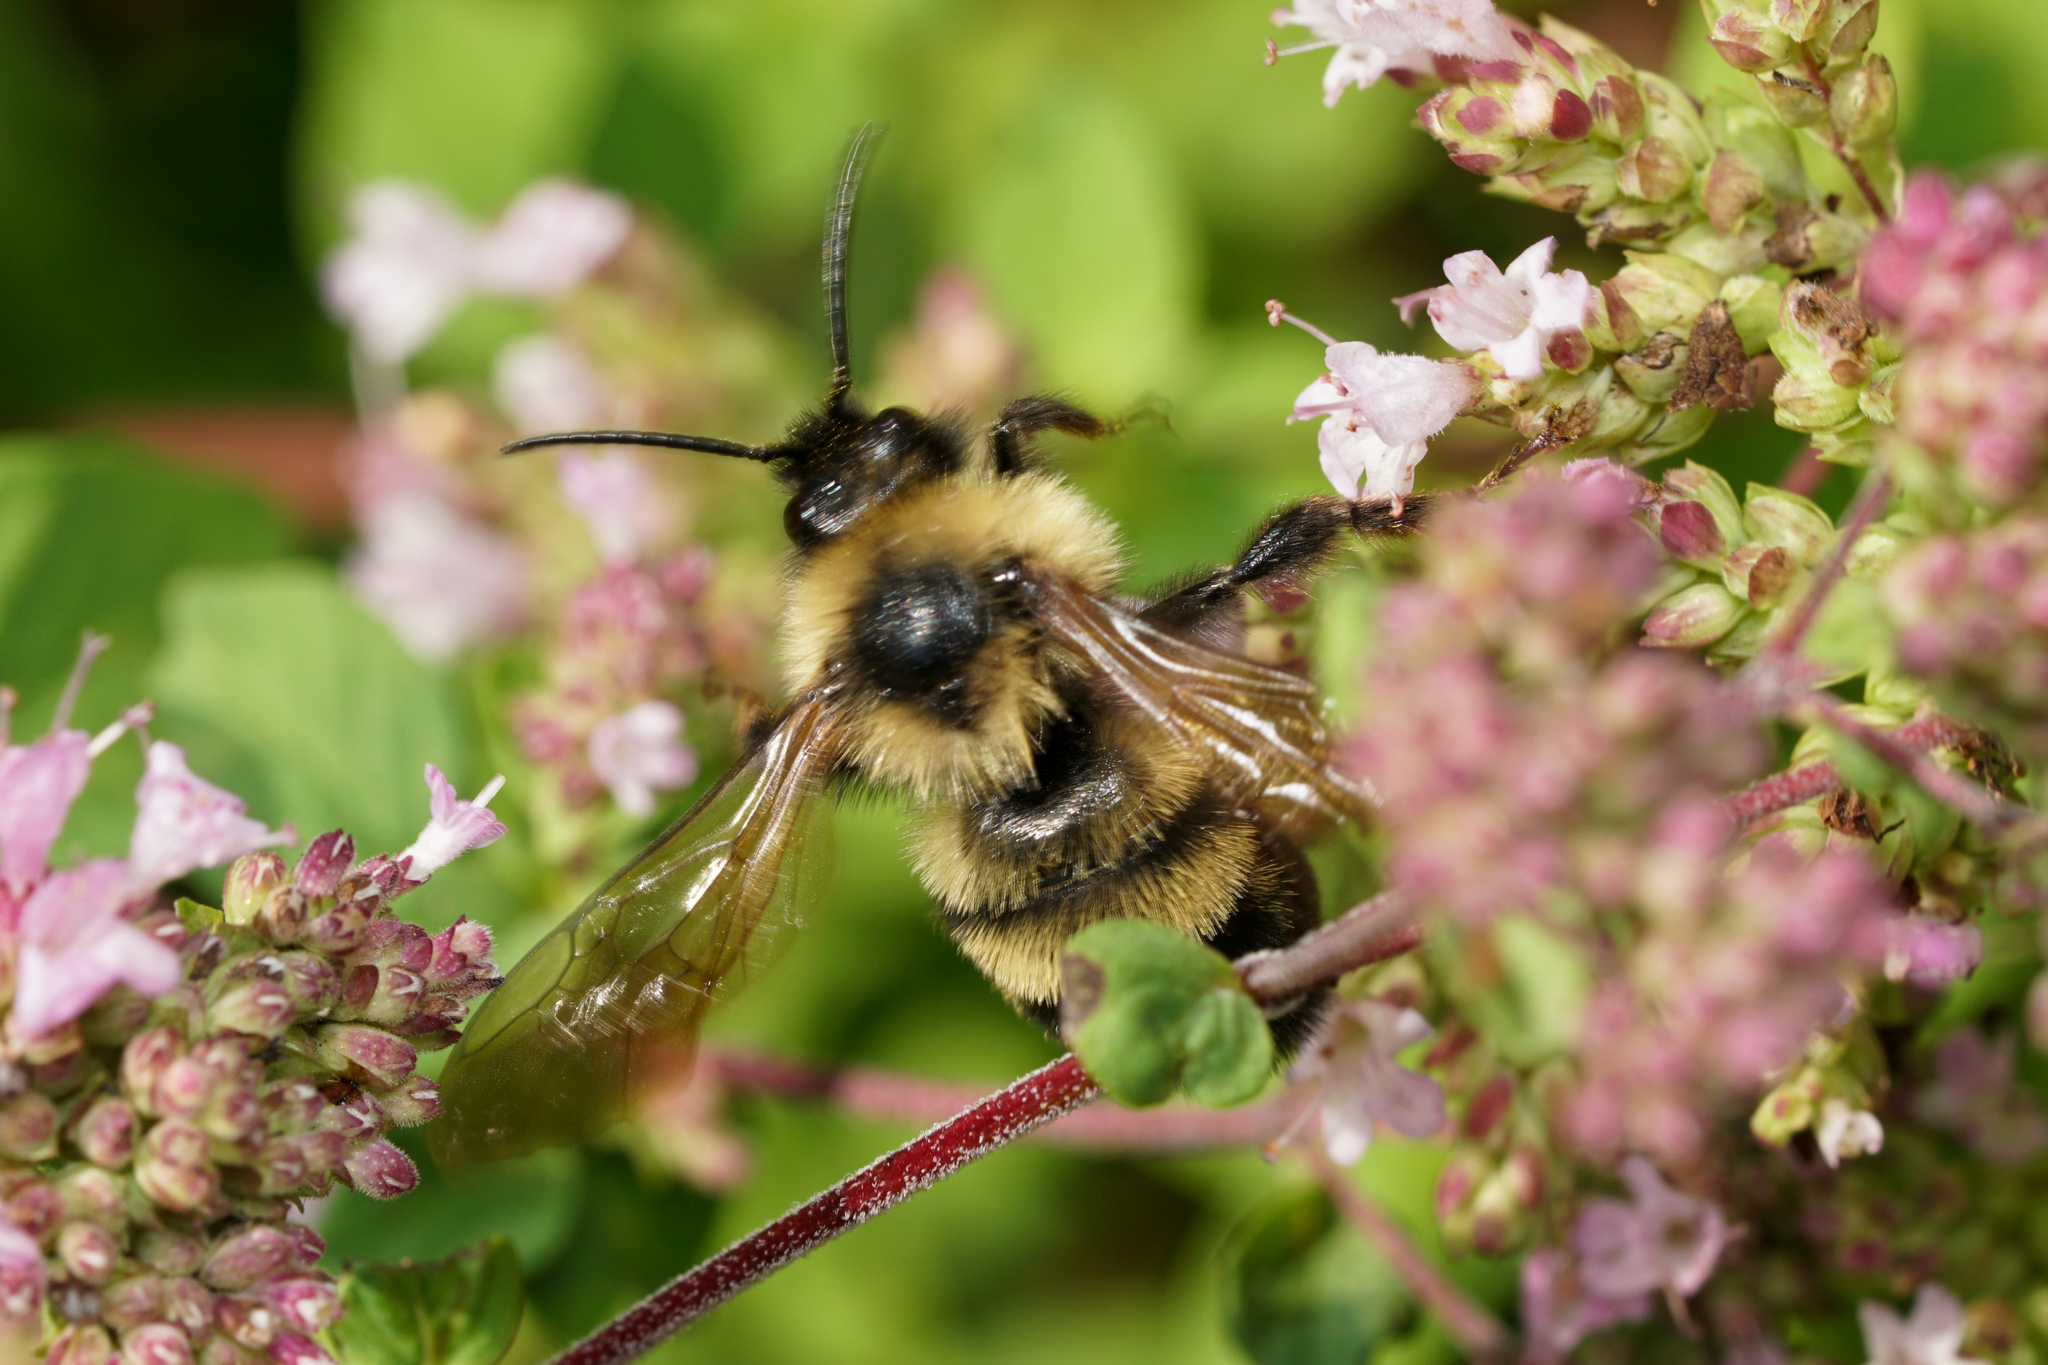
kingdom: Animalia
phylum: Arthropoda
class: Insecta
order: Hymenoptera
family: Apidae
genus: Bombus
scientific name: Bombus citrinus
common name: Lemon cuckoo bumble bee
